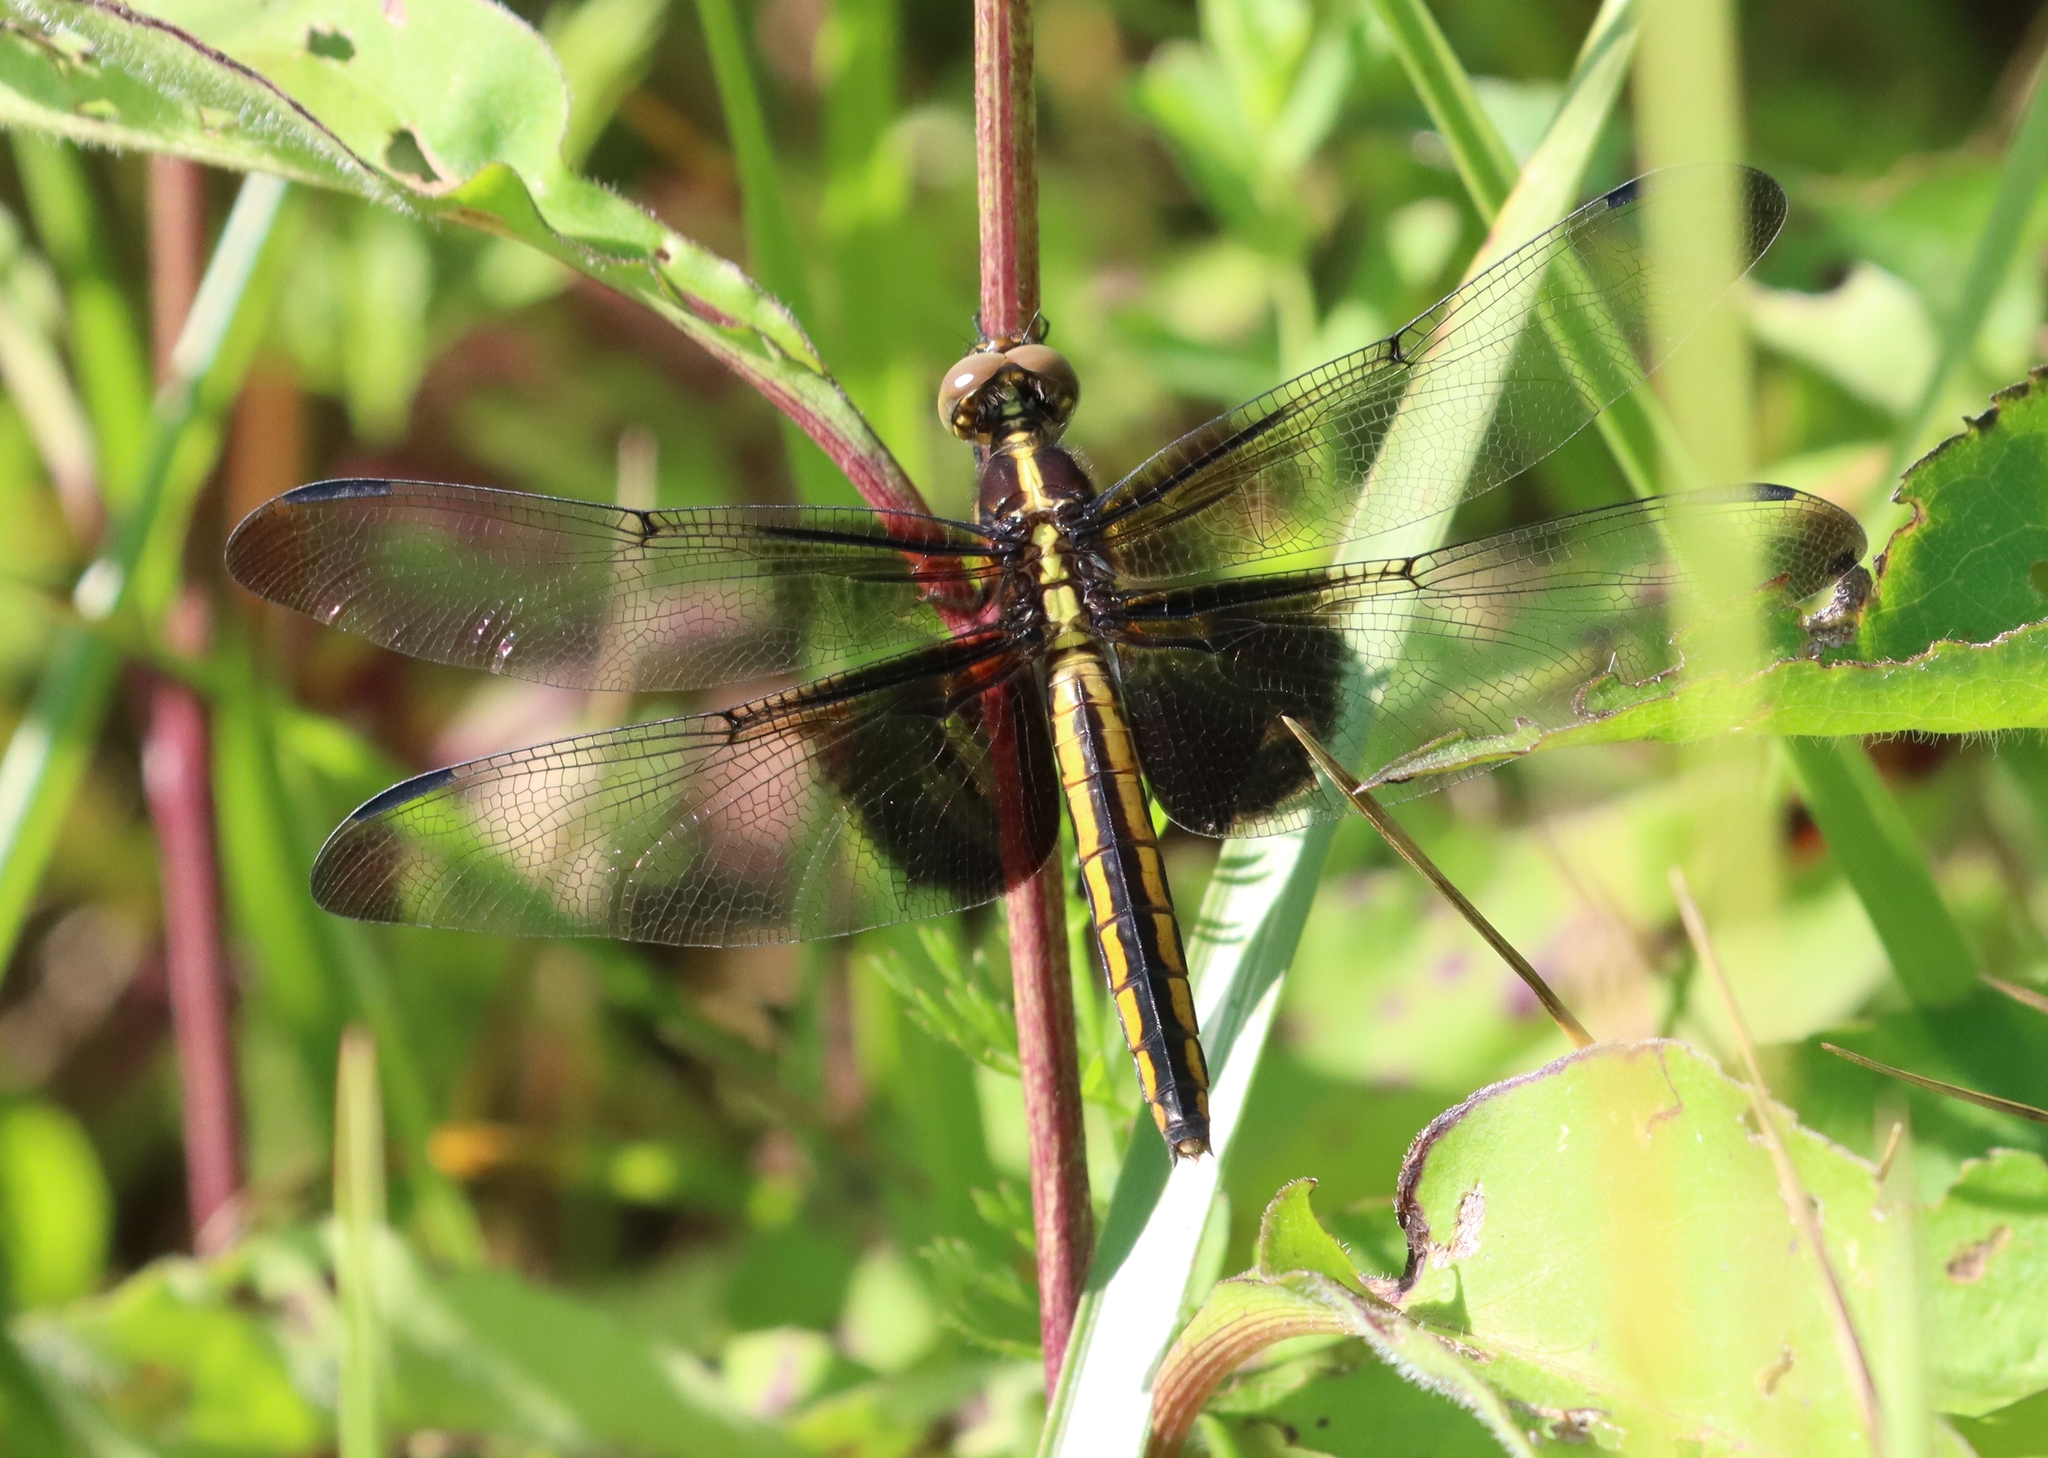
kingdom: Animalia
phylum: Arthropoda
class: Insecta
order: Odonata
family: Libellulidae
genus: Libellula
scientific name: Libellula luctuosa
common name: Widow skimmer
